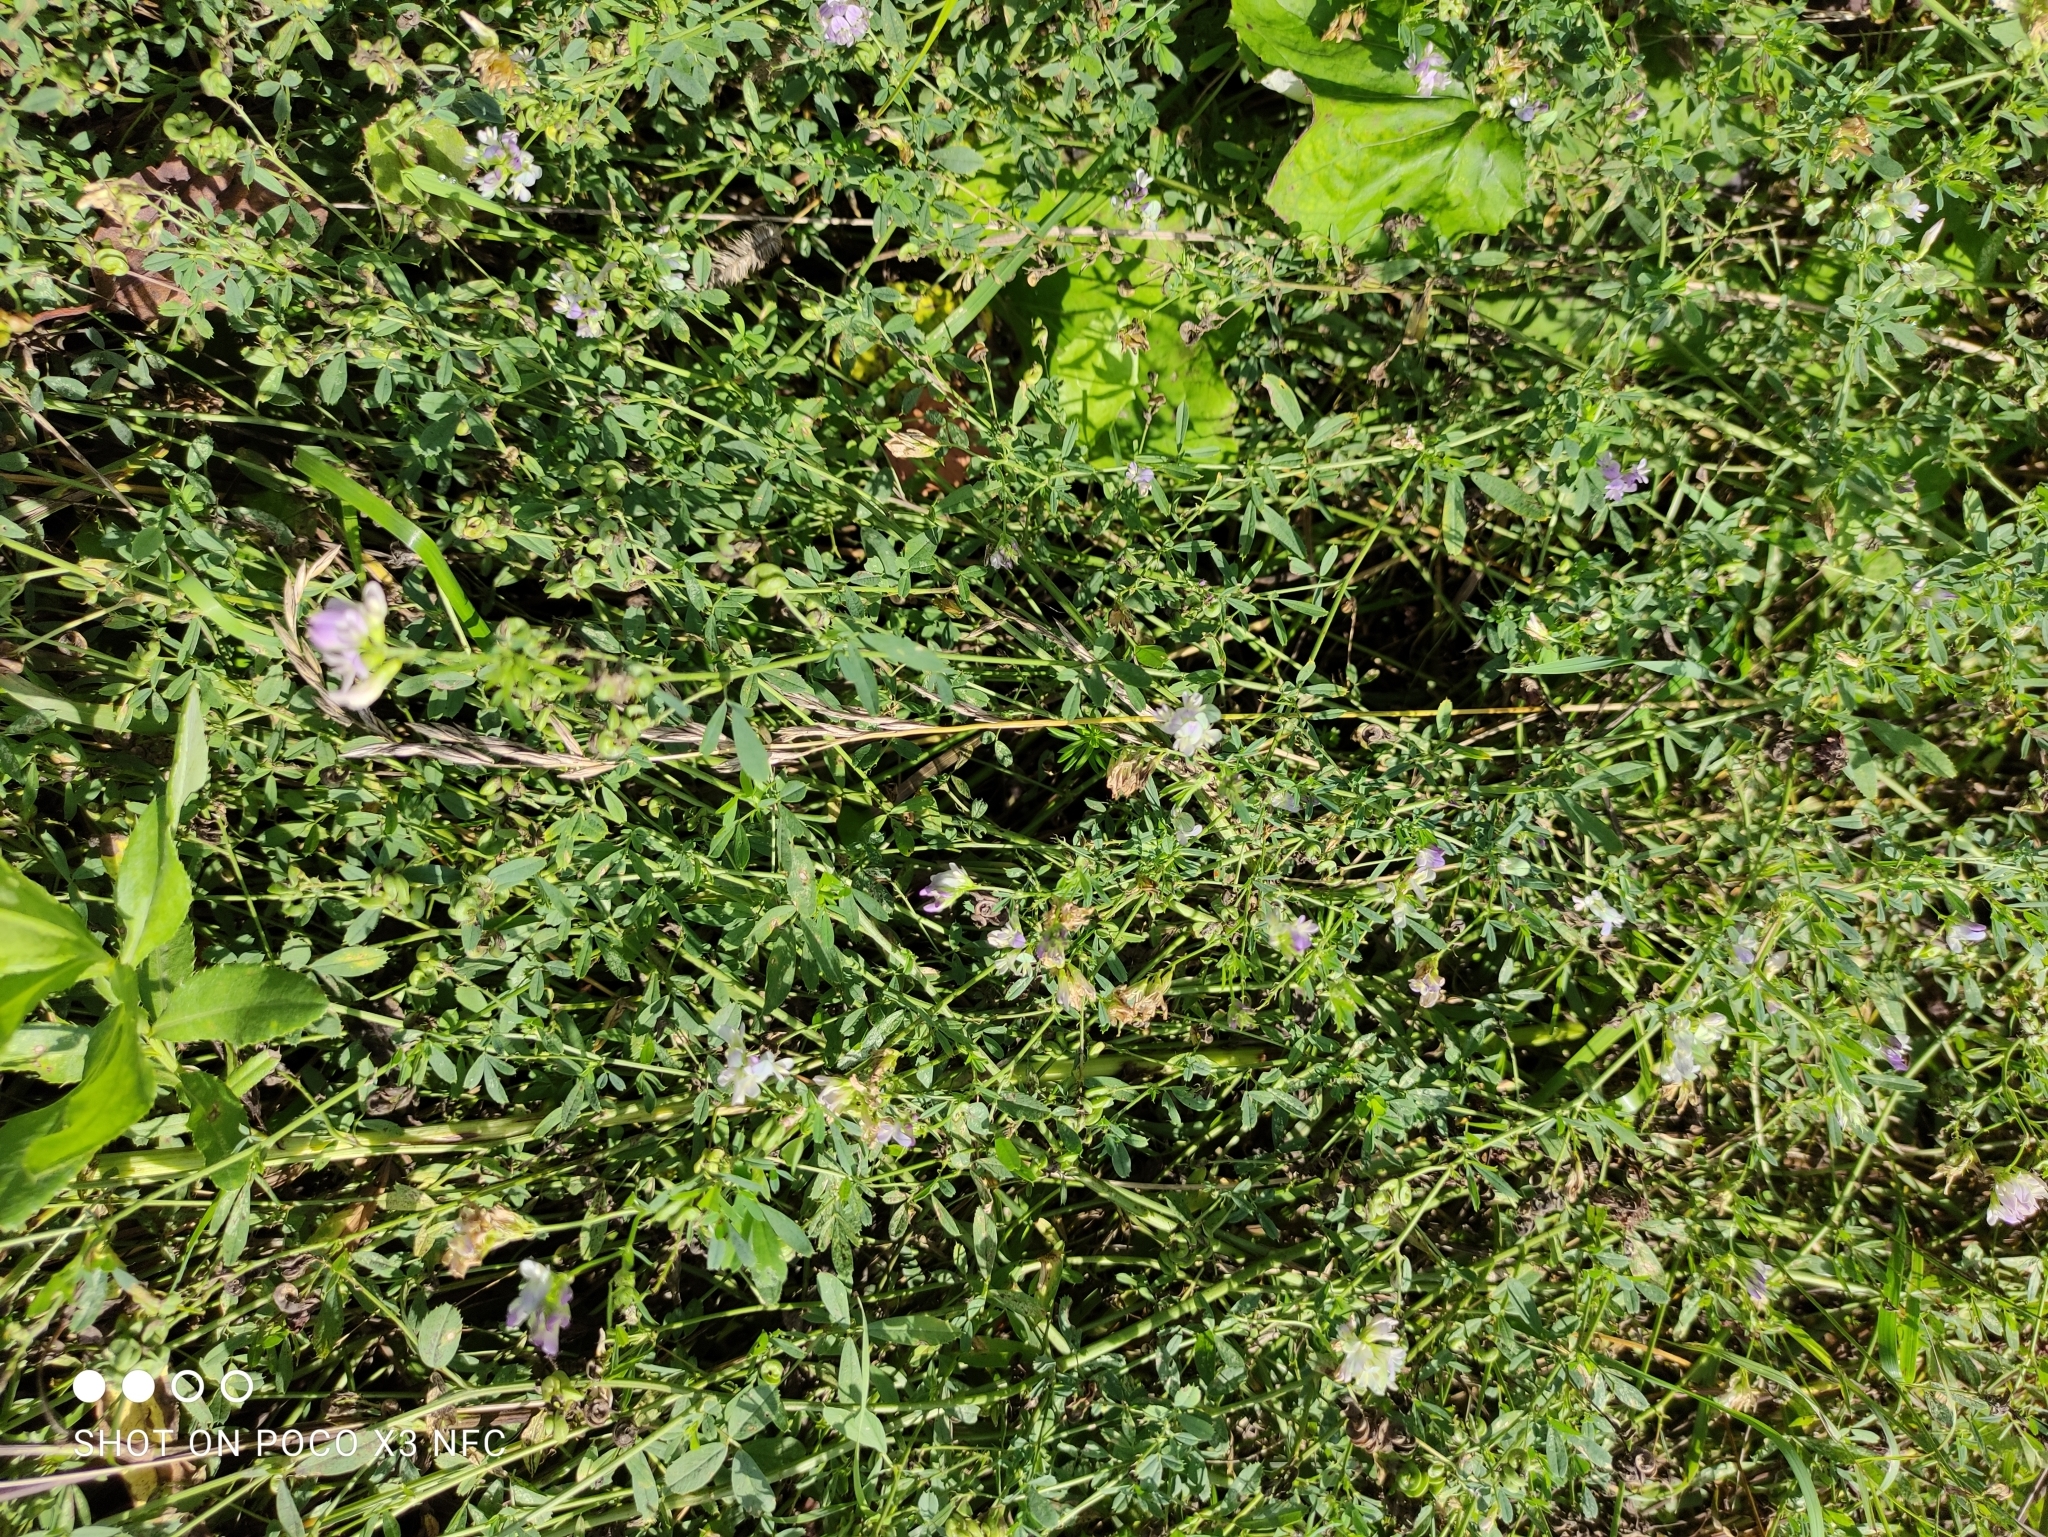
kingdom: Plantae
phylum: Tracheophyta
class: Magnoliopsida
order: Fabales
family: Fabaceae
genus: Medicago
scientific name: Medicago varia
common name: Sand lucerne
